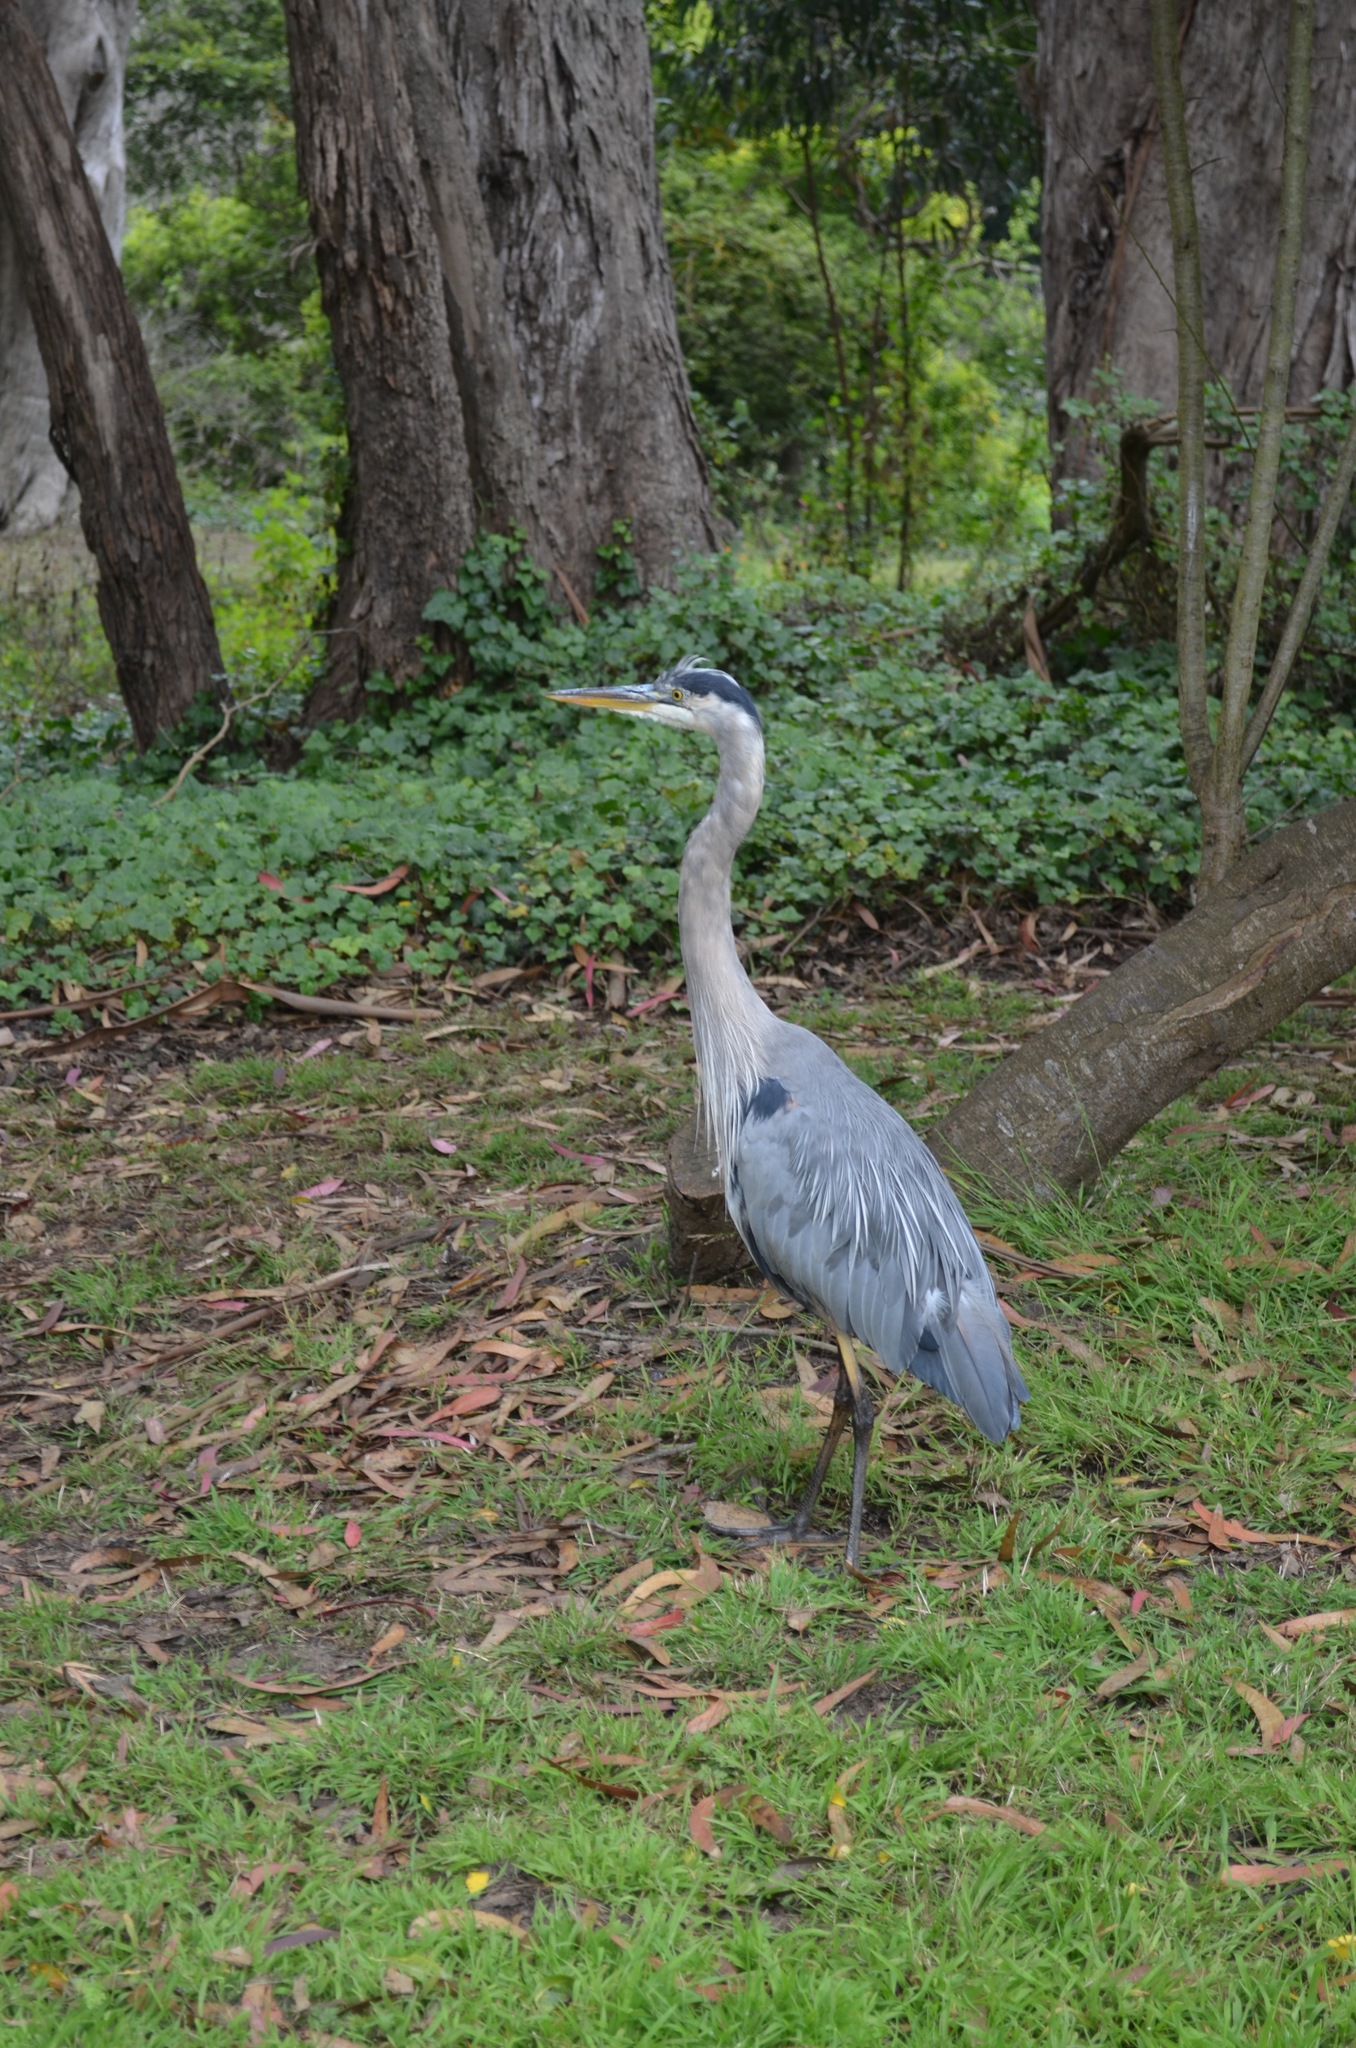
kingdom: Animalia
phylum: Chordata
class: Aves
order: Pelecaniformes
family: Ardeidae
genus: Ardea
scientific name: Ardea herodias
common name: Great blue heron
